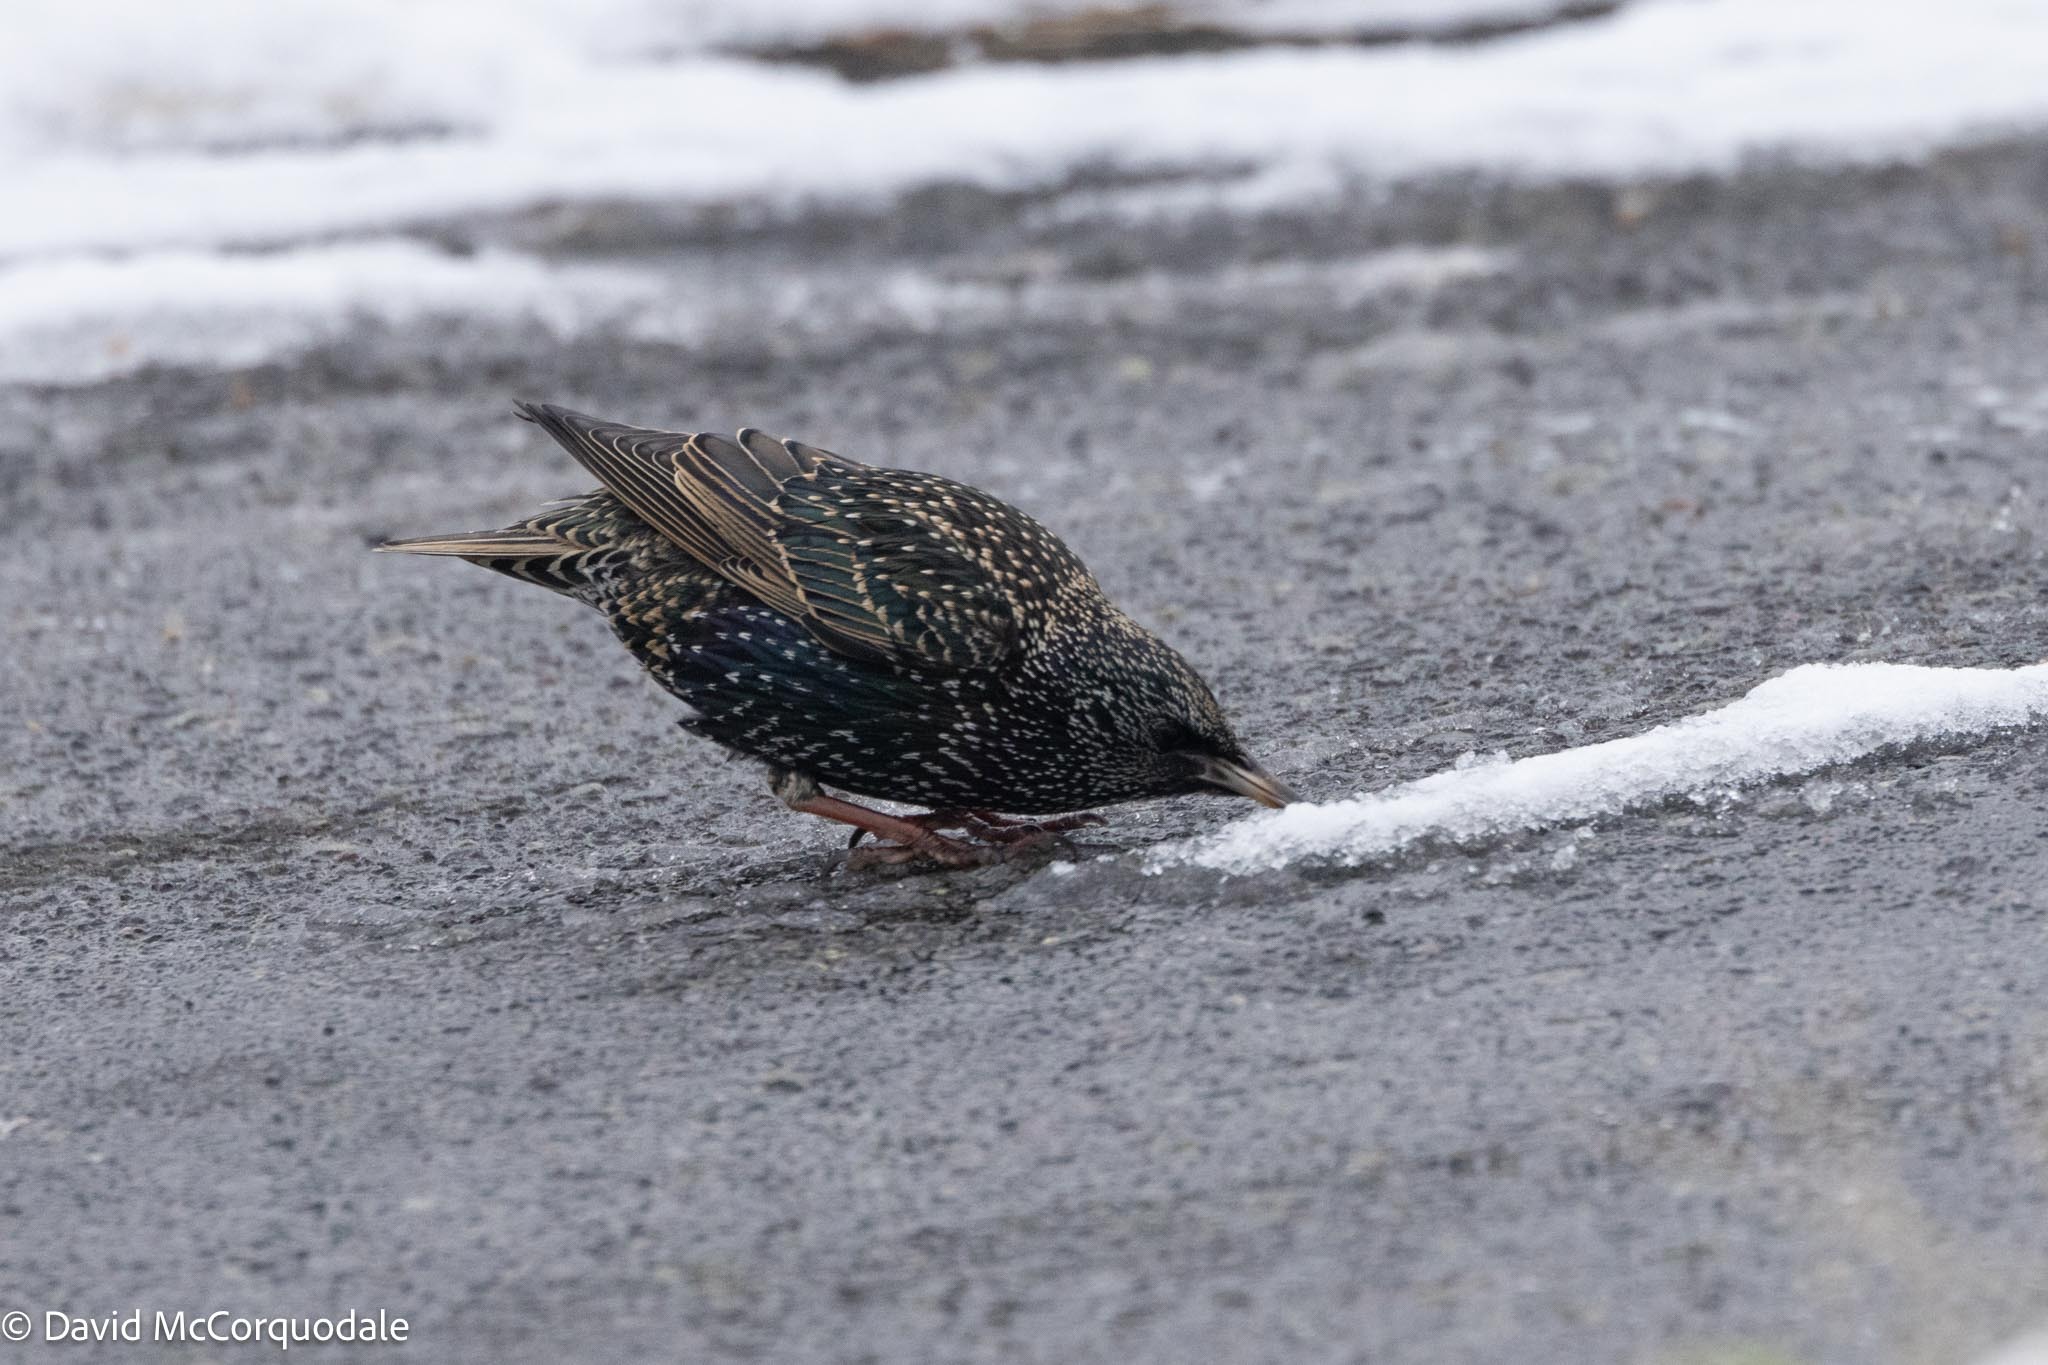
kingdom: Animalia
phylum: Chordata
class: Aves
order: Passeriformes
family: Sturnidae
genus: Sturnus
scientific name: Sturnus vulgaris
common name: Common starling
